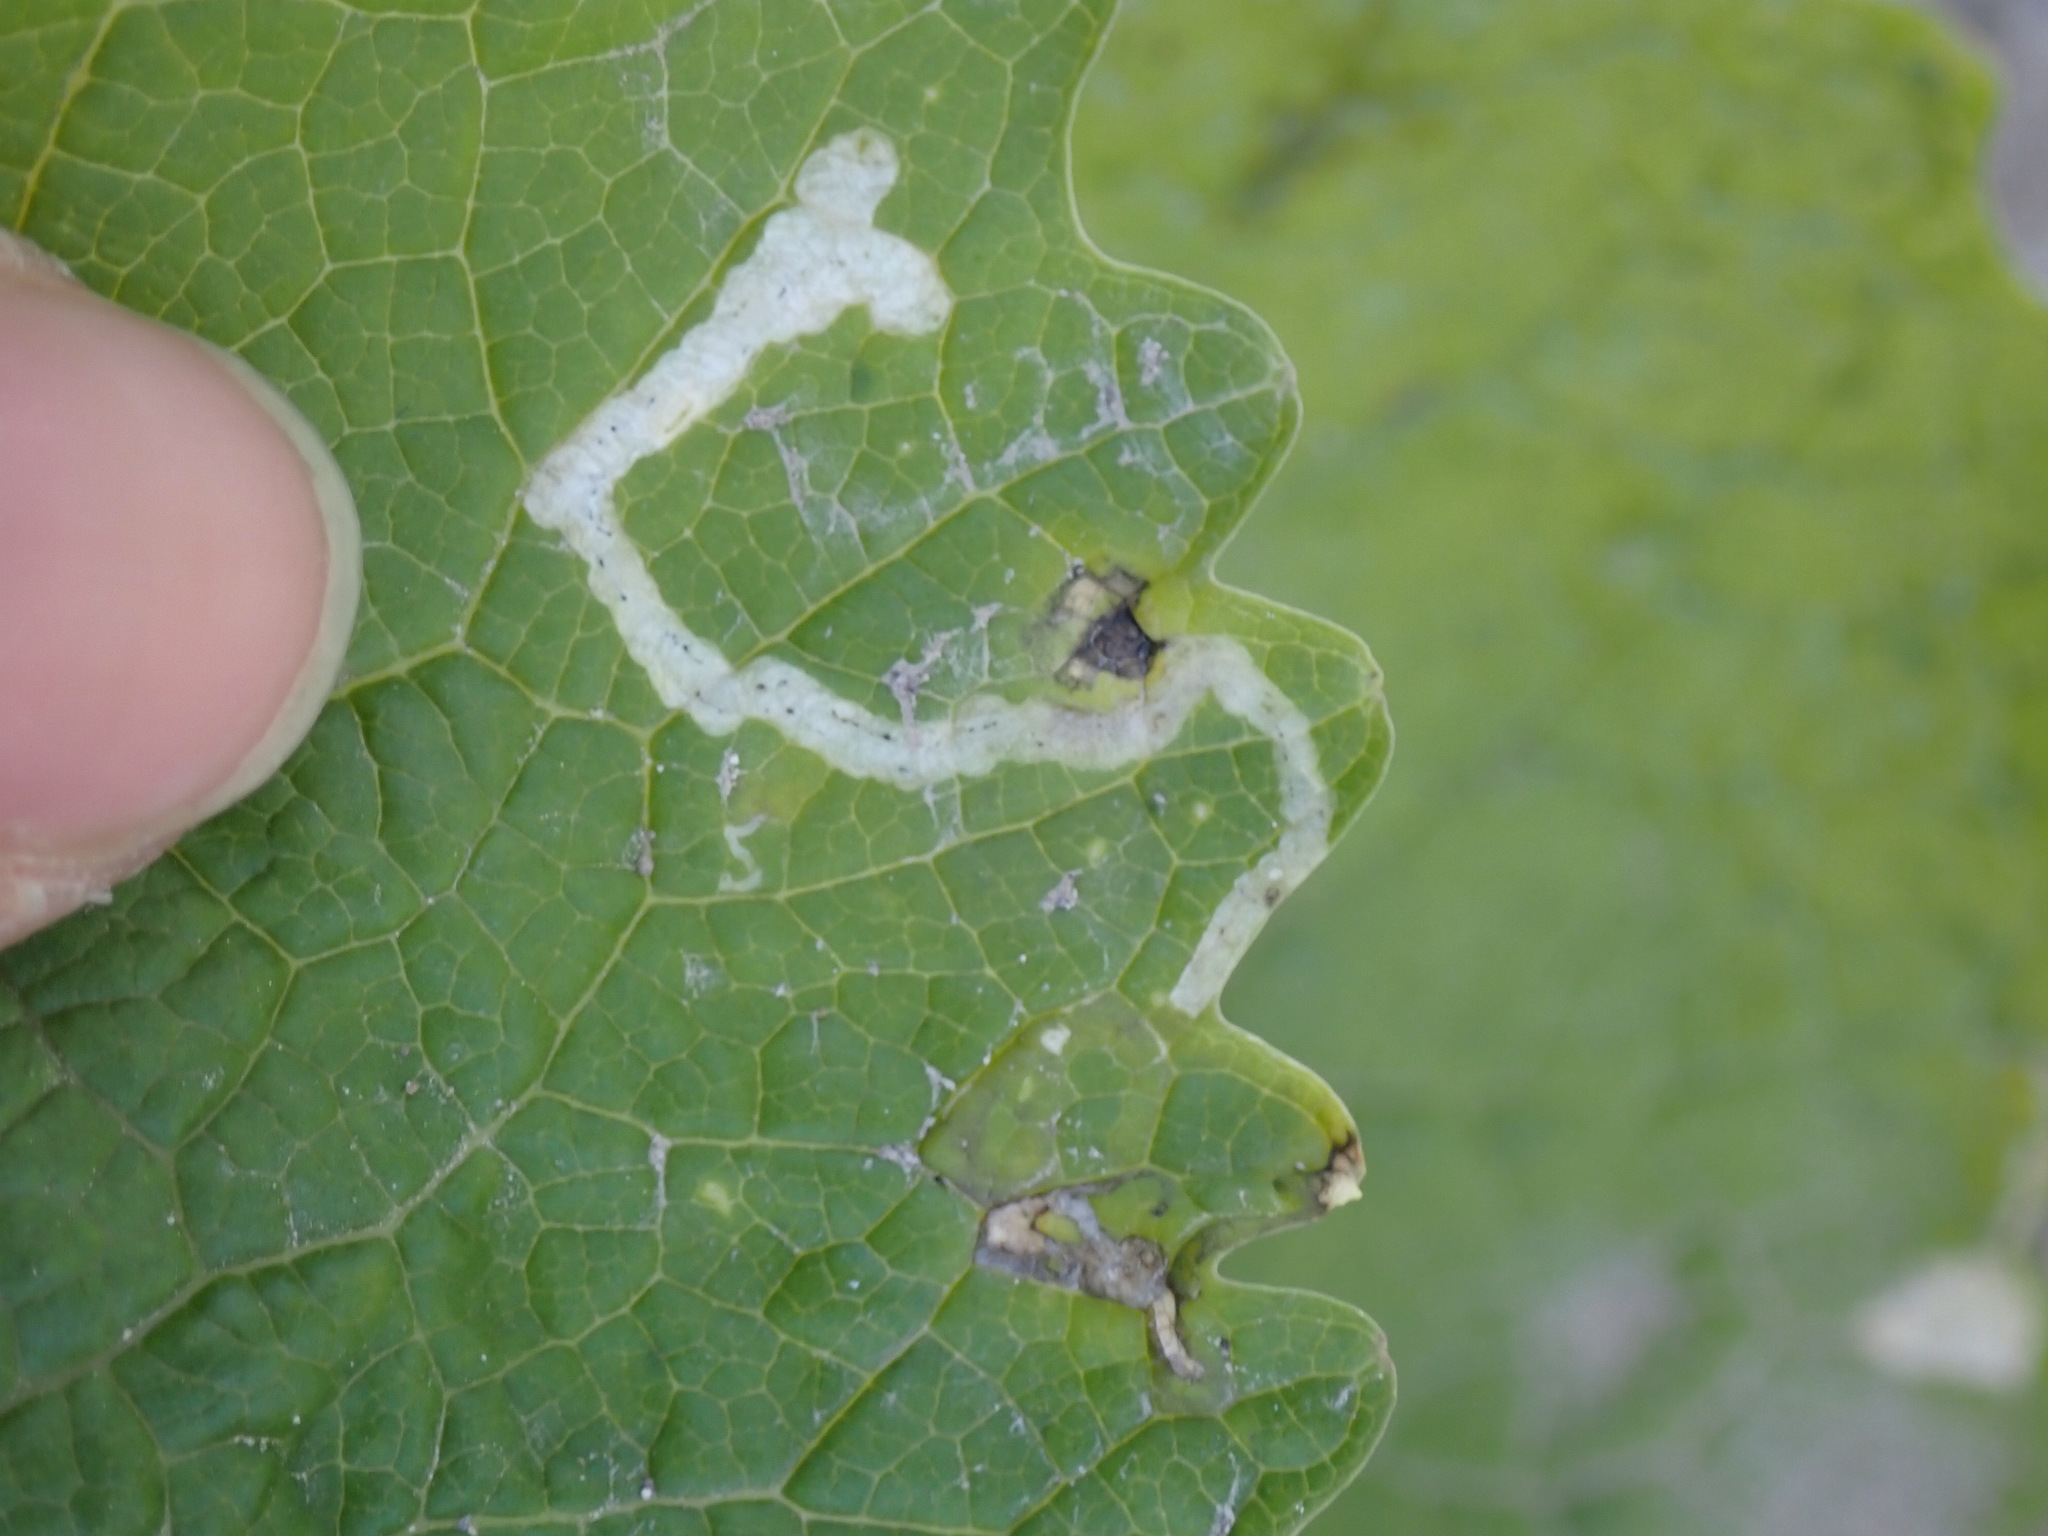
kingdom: Animalia
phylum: Arthropoda
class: Insecta
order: Diptera
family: Agromyzidae
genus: Liriomyza
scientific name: Liriomyza brassicae
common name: Serpentine leaf miner
